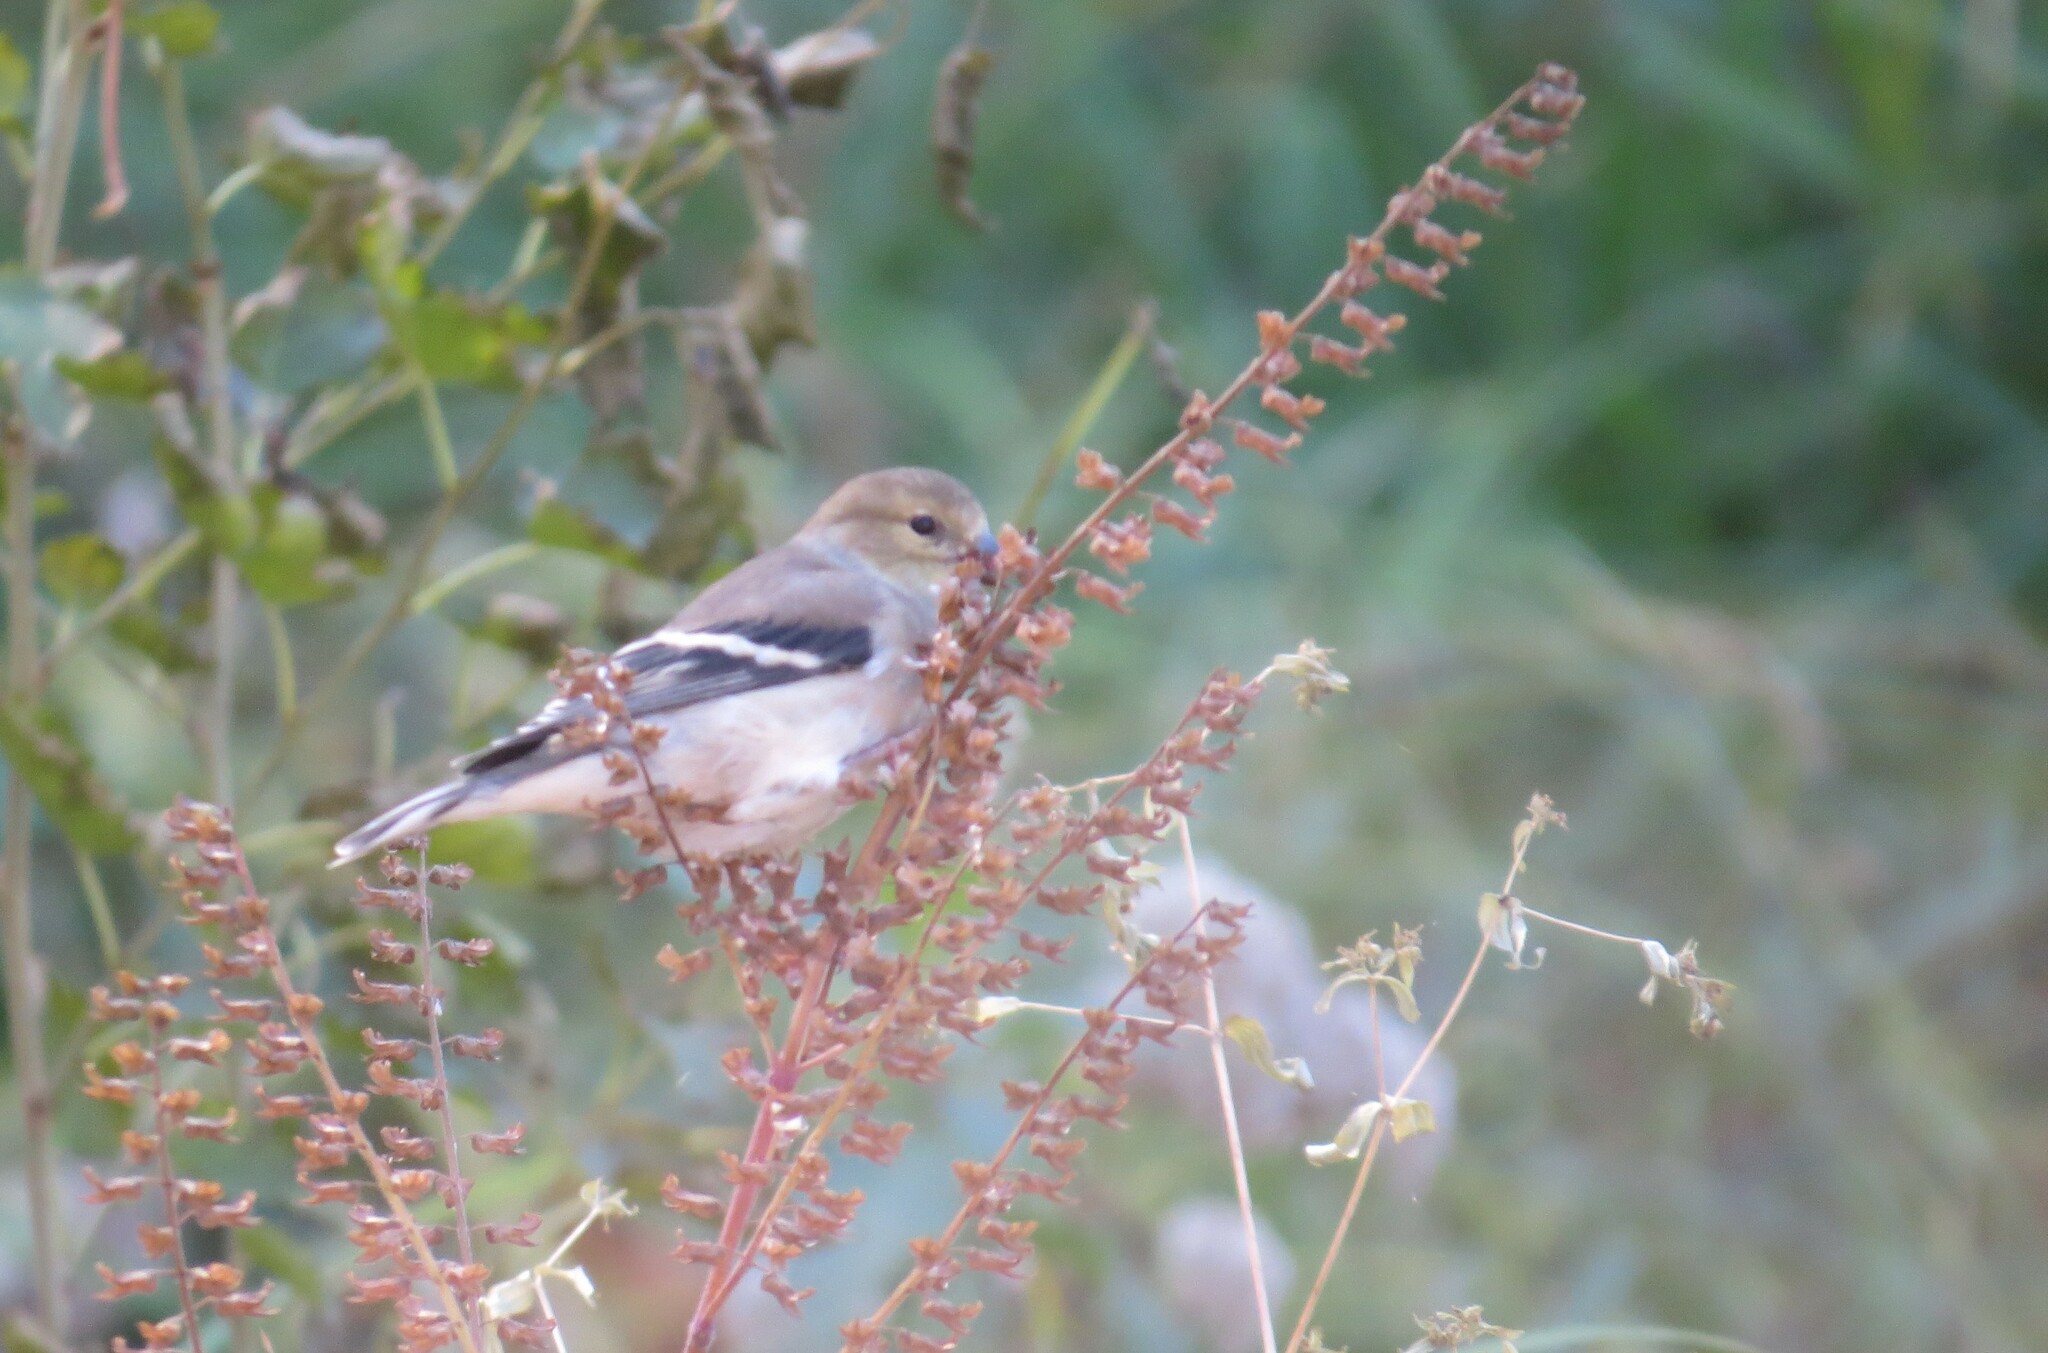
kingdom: Animalia
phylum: Chordata
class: Aves
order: Passeriformes
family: Fringillidae
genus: Spinus
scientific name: Spinus tristis
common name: American goldfinch
